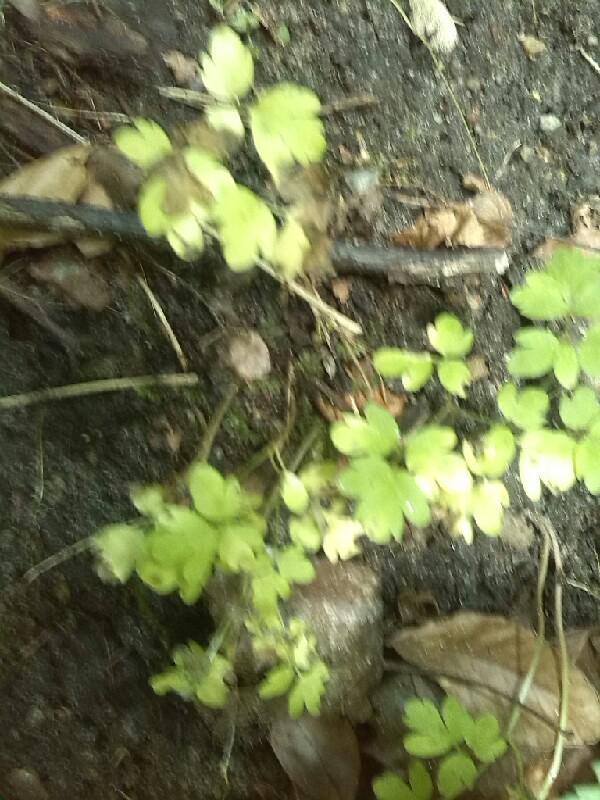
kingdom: Plantae
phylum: Tracheophyta
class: Magnoliopsida
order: Dipsacales
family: Viburnaceae
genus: Adoxa
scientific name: Adoxa moschatellina
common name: Moschatel
